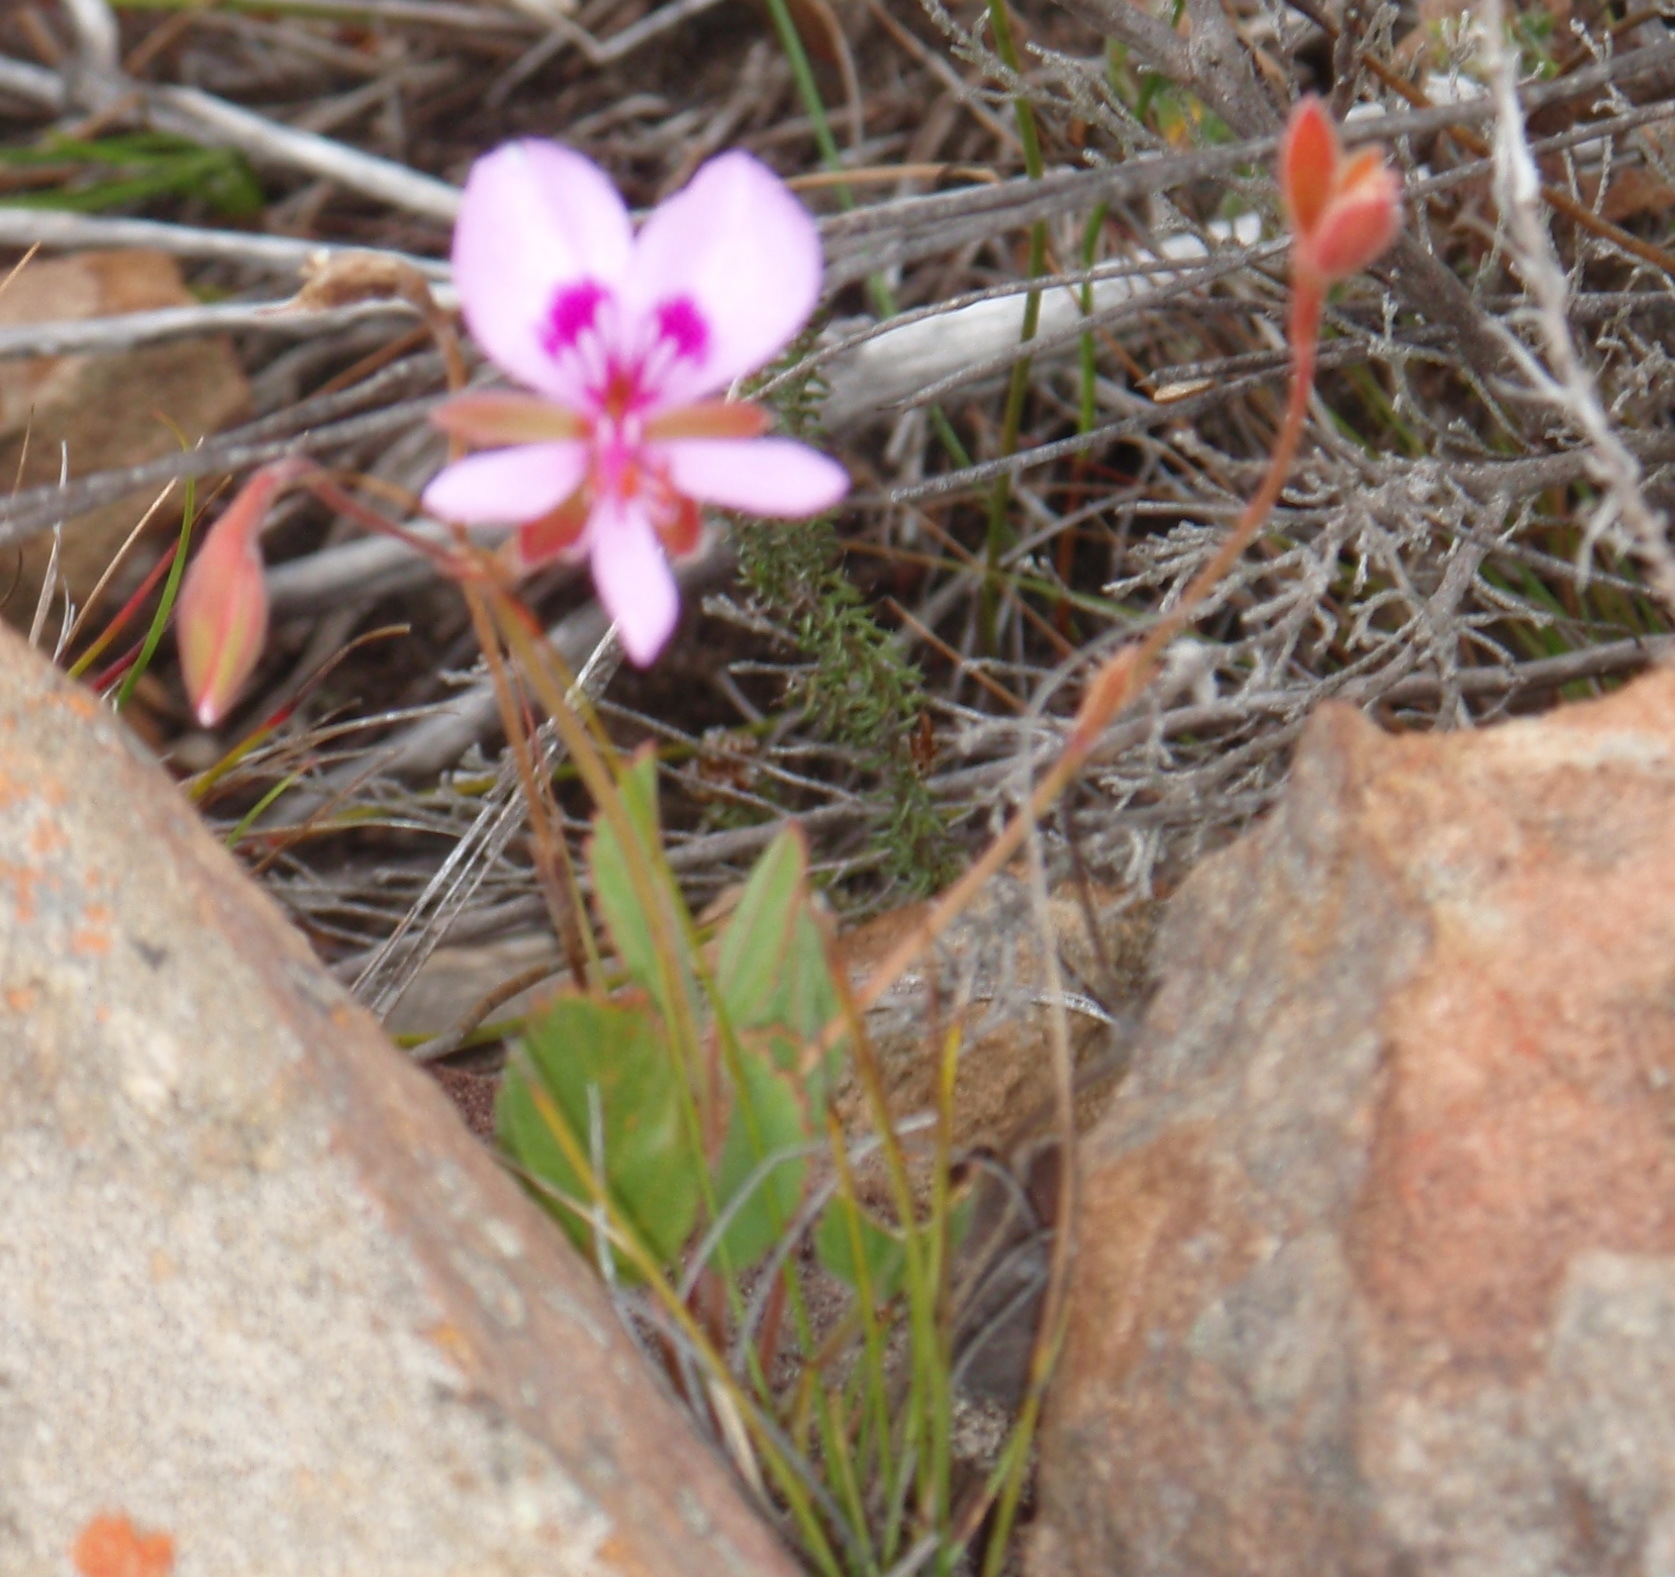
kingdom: Plantae
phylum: Tracheophyta
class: Magnoliopsida
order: Geraniales
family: Geraniaceae
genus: Pelargonium
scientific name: Pelargonium ovale
